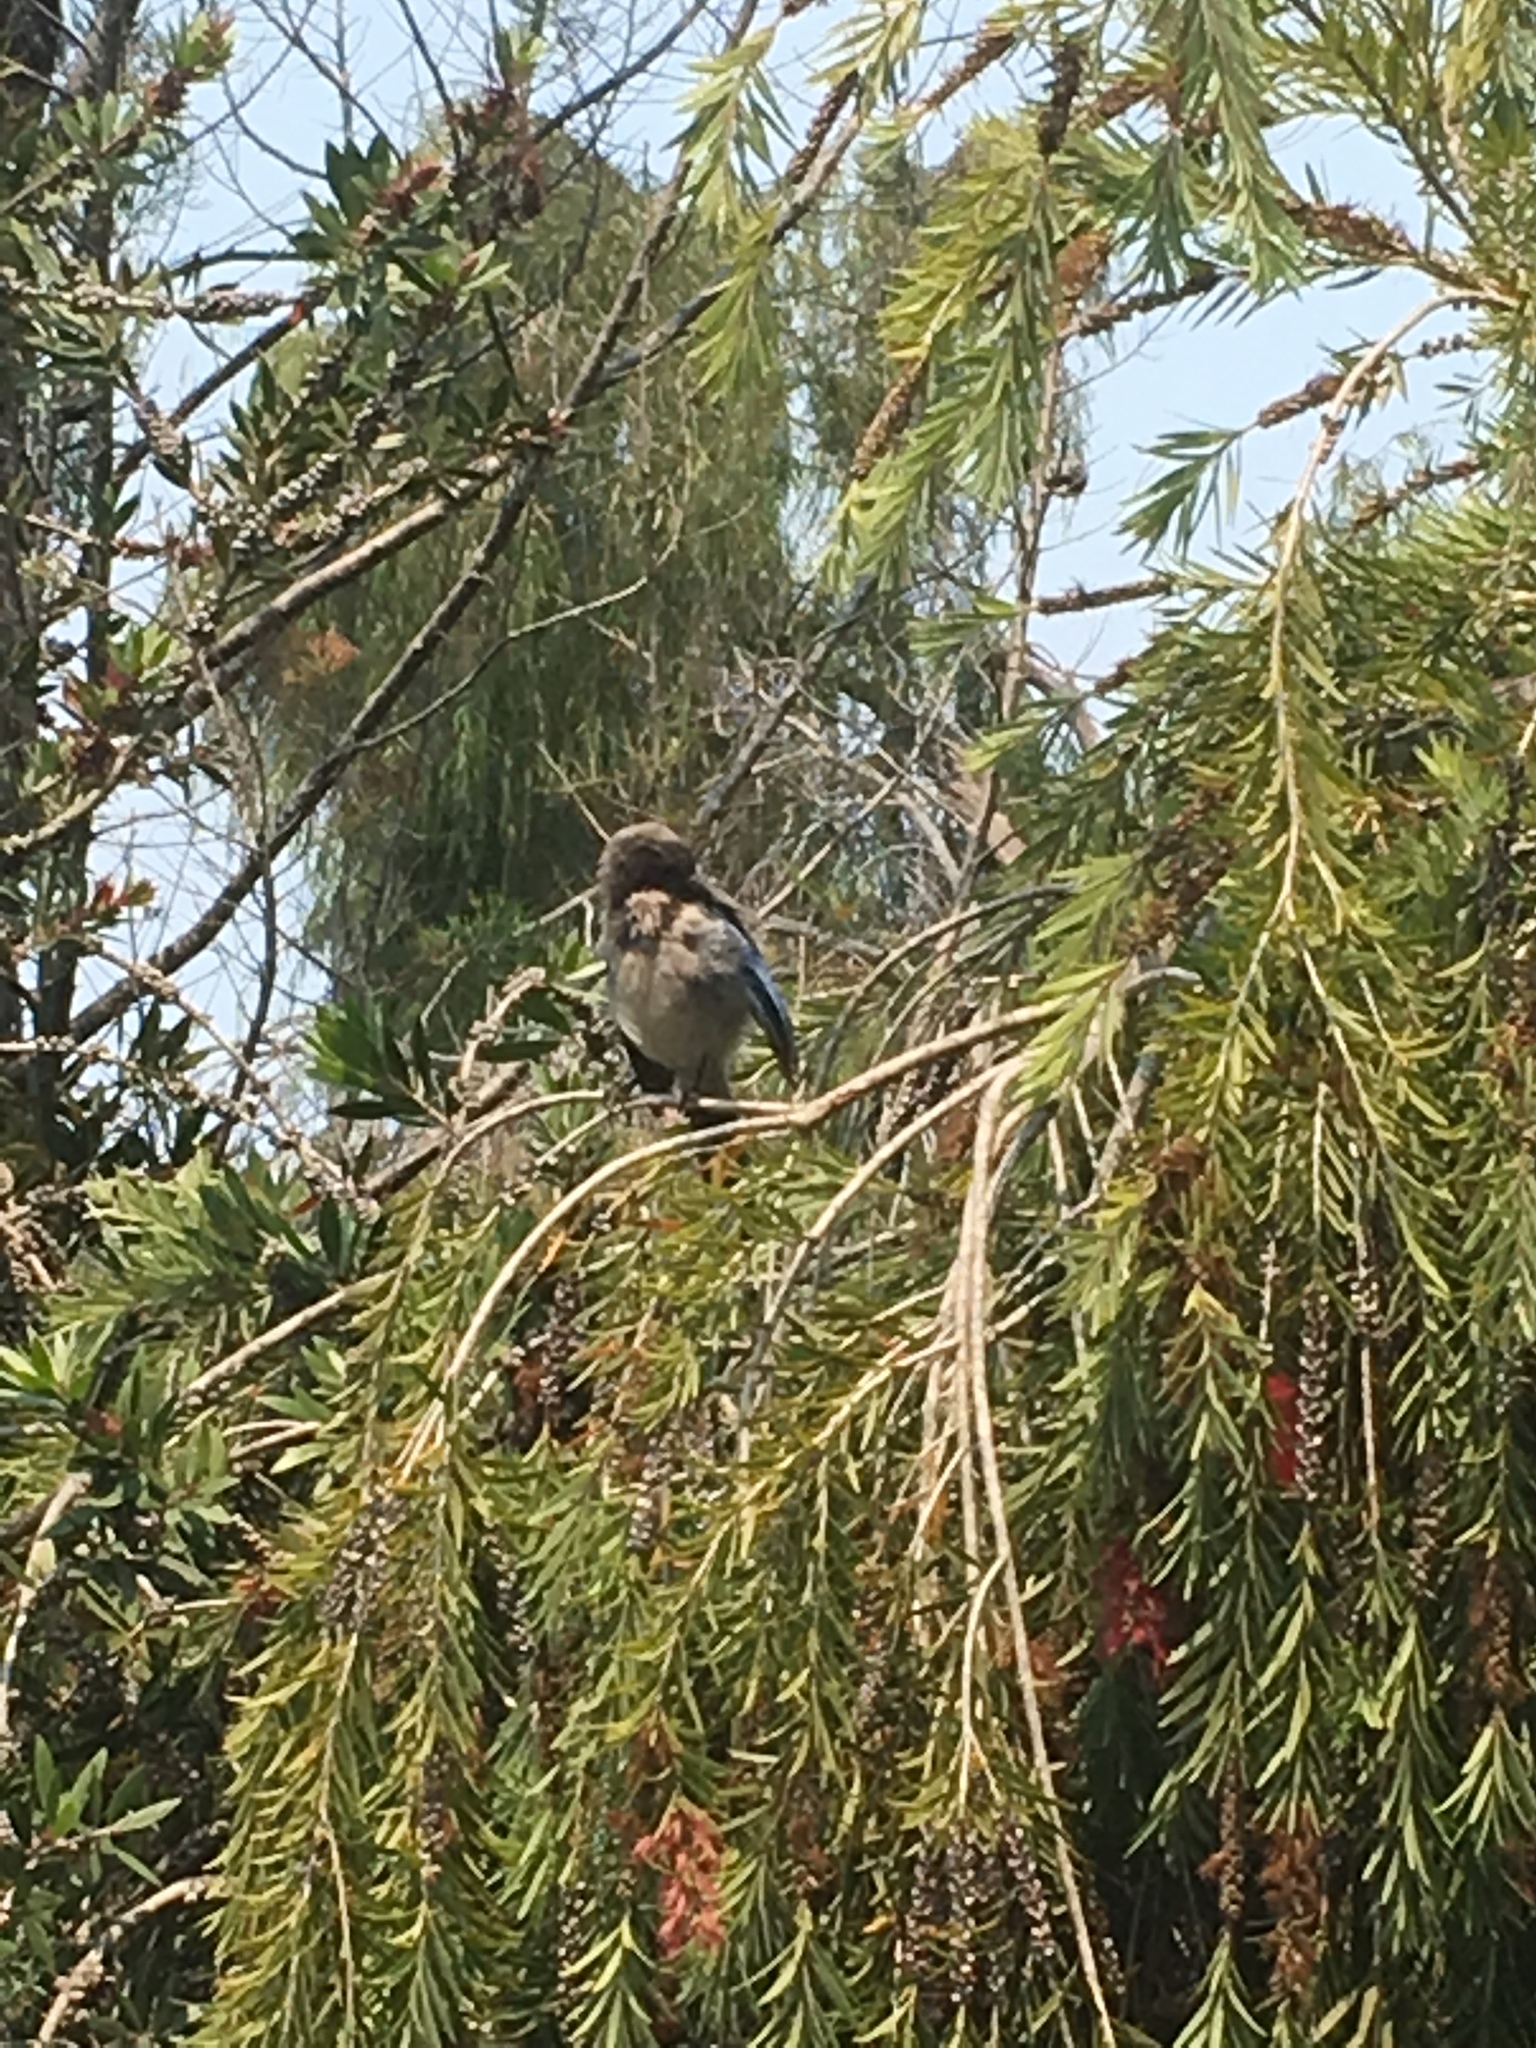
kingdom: Animalia
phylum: Chordata
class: Aves
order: Passeriformes
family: Corvidae
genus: Aphelocoma
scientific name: Aphelocoma californica
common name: California scrub-jay
